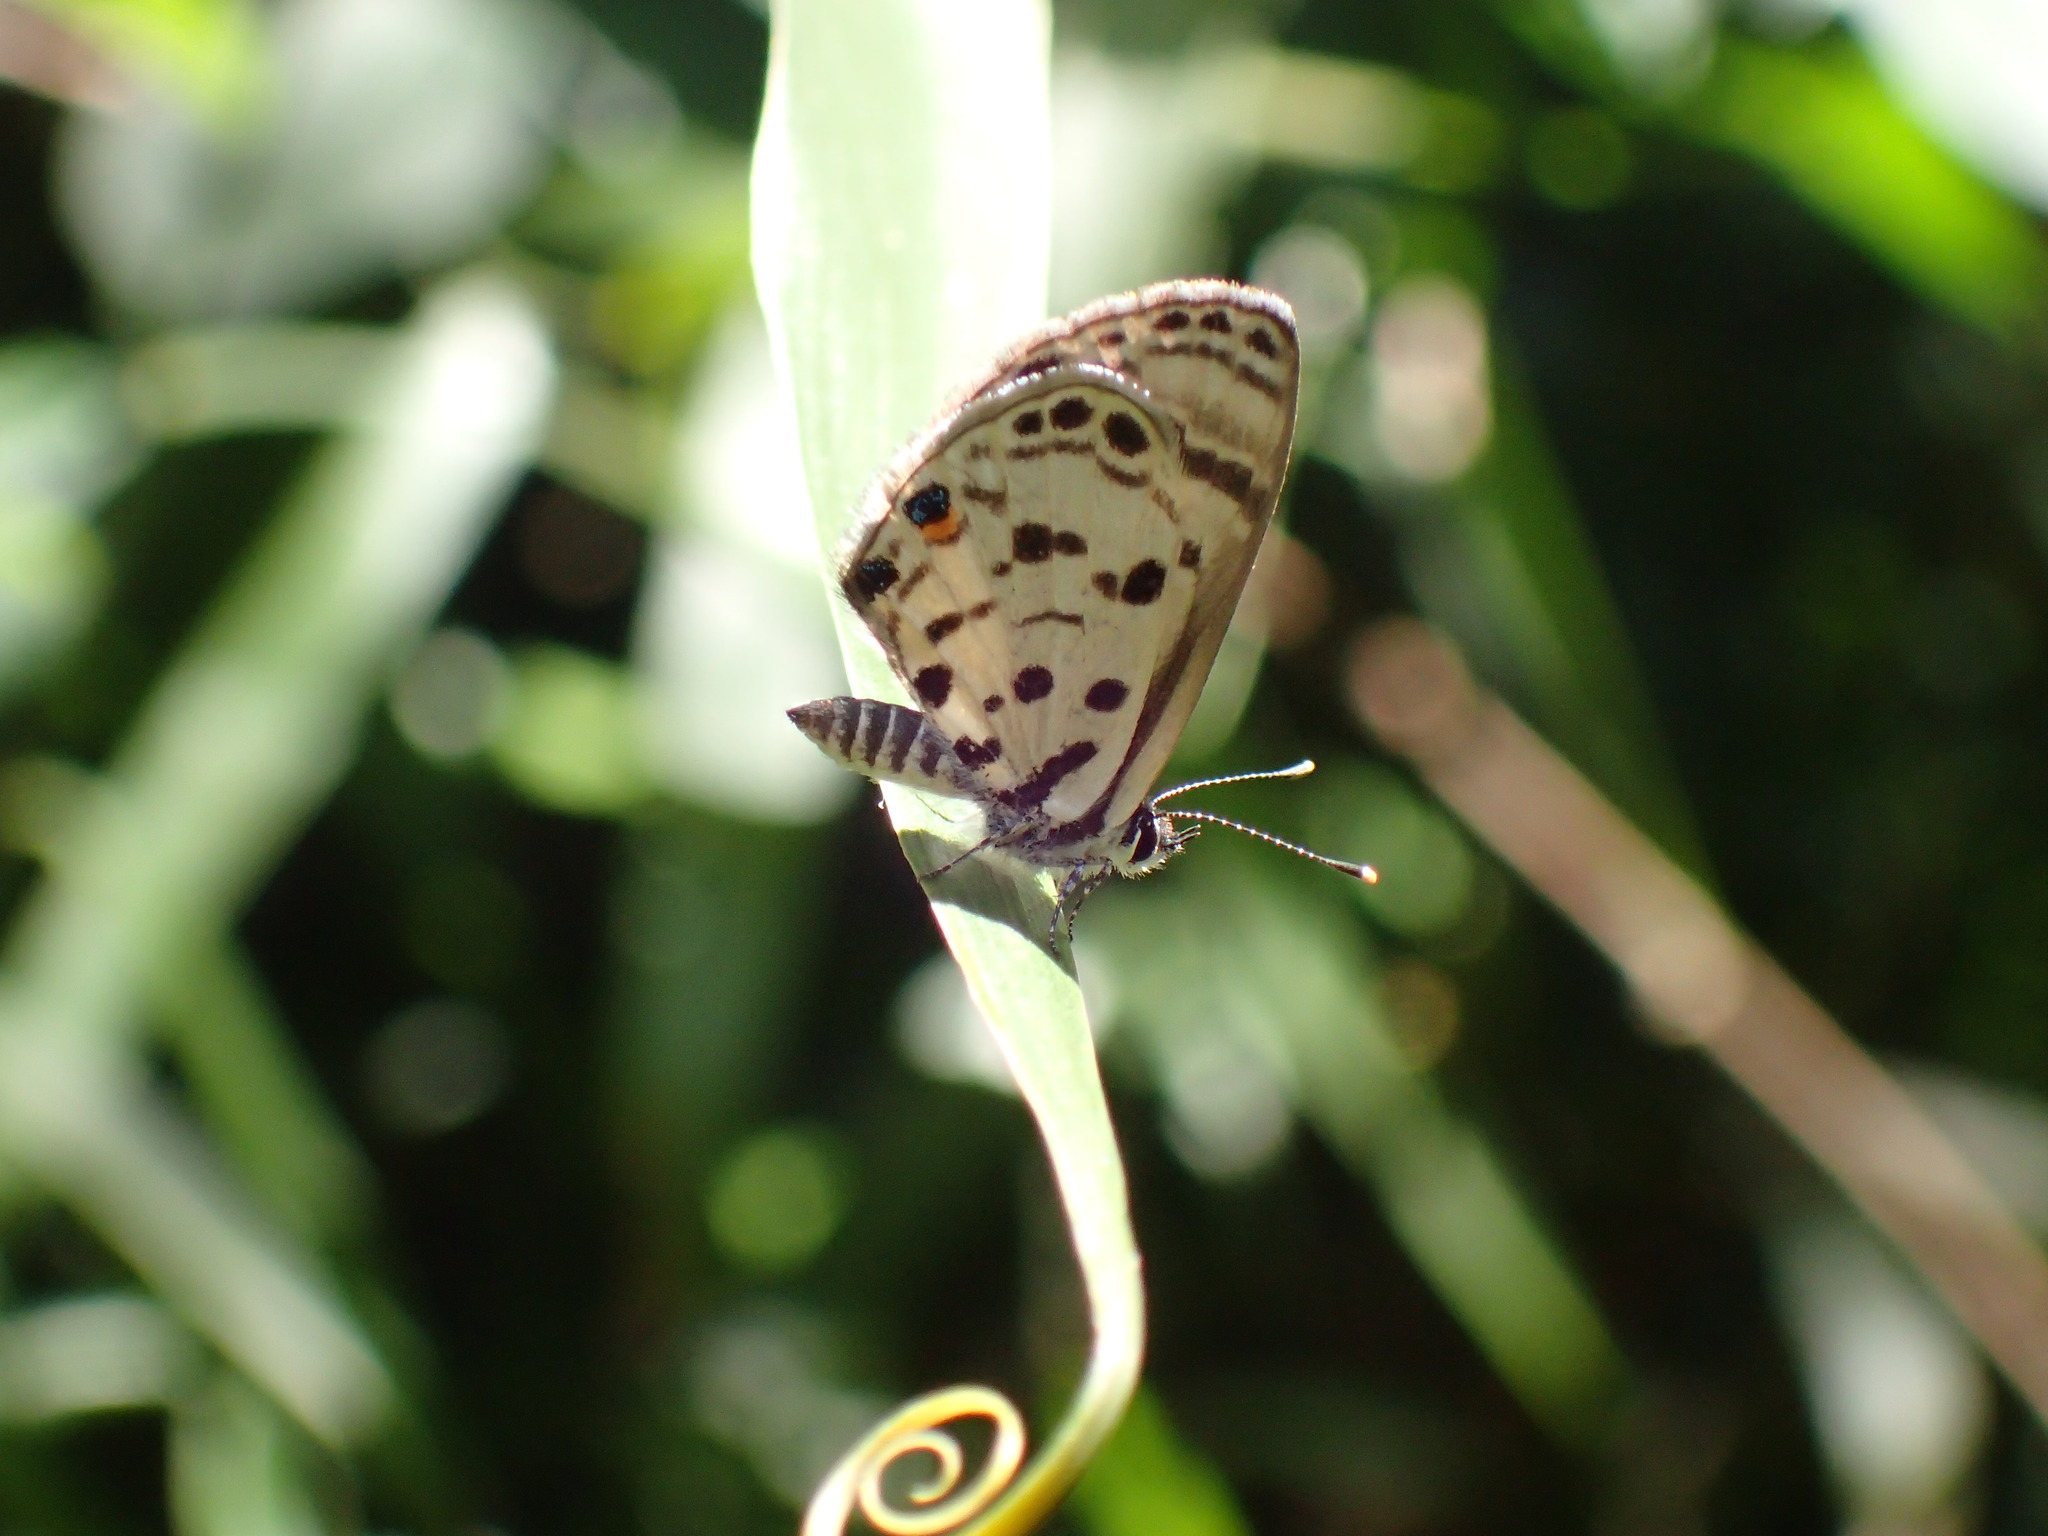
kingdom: Animalia
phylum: Arthropoda
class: Insecta
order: Lepidoptera
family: Lycaenidae
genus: Azanus
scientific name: Azanus mirza
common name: Mirza babul blue
